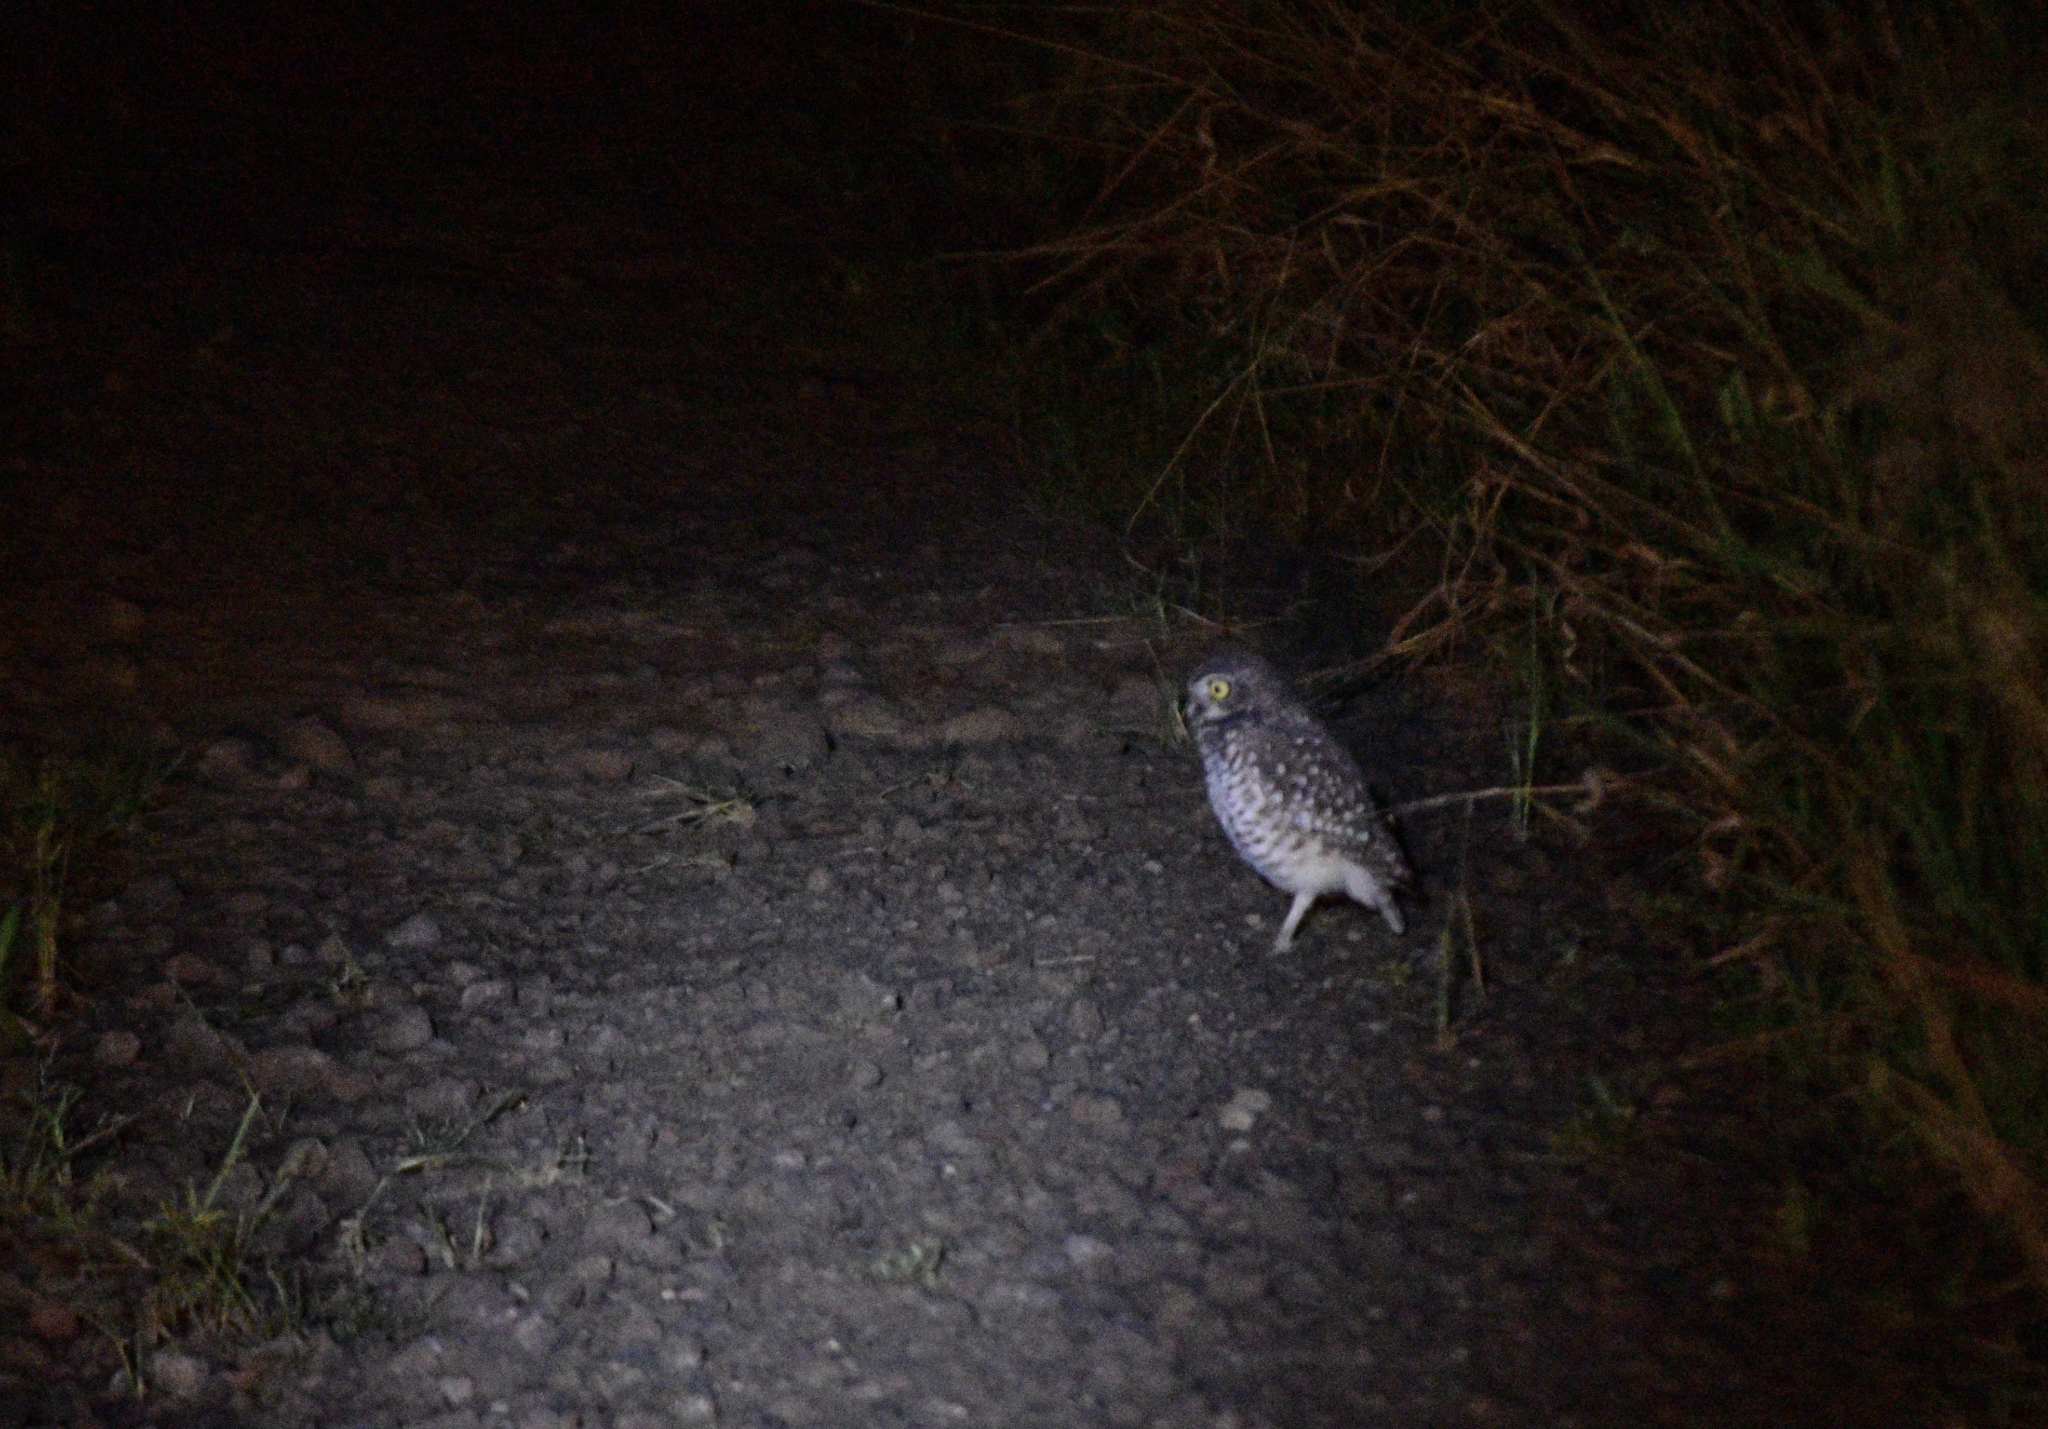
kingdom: Animalia
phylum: Chordata
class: Aves
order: Strigiformes
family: Strigidae
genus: Athene
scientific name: Athene cunicularia
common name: Burrowing owl
